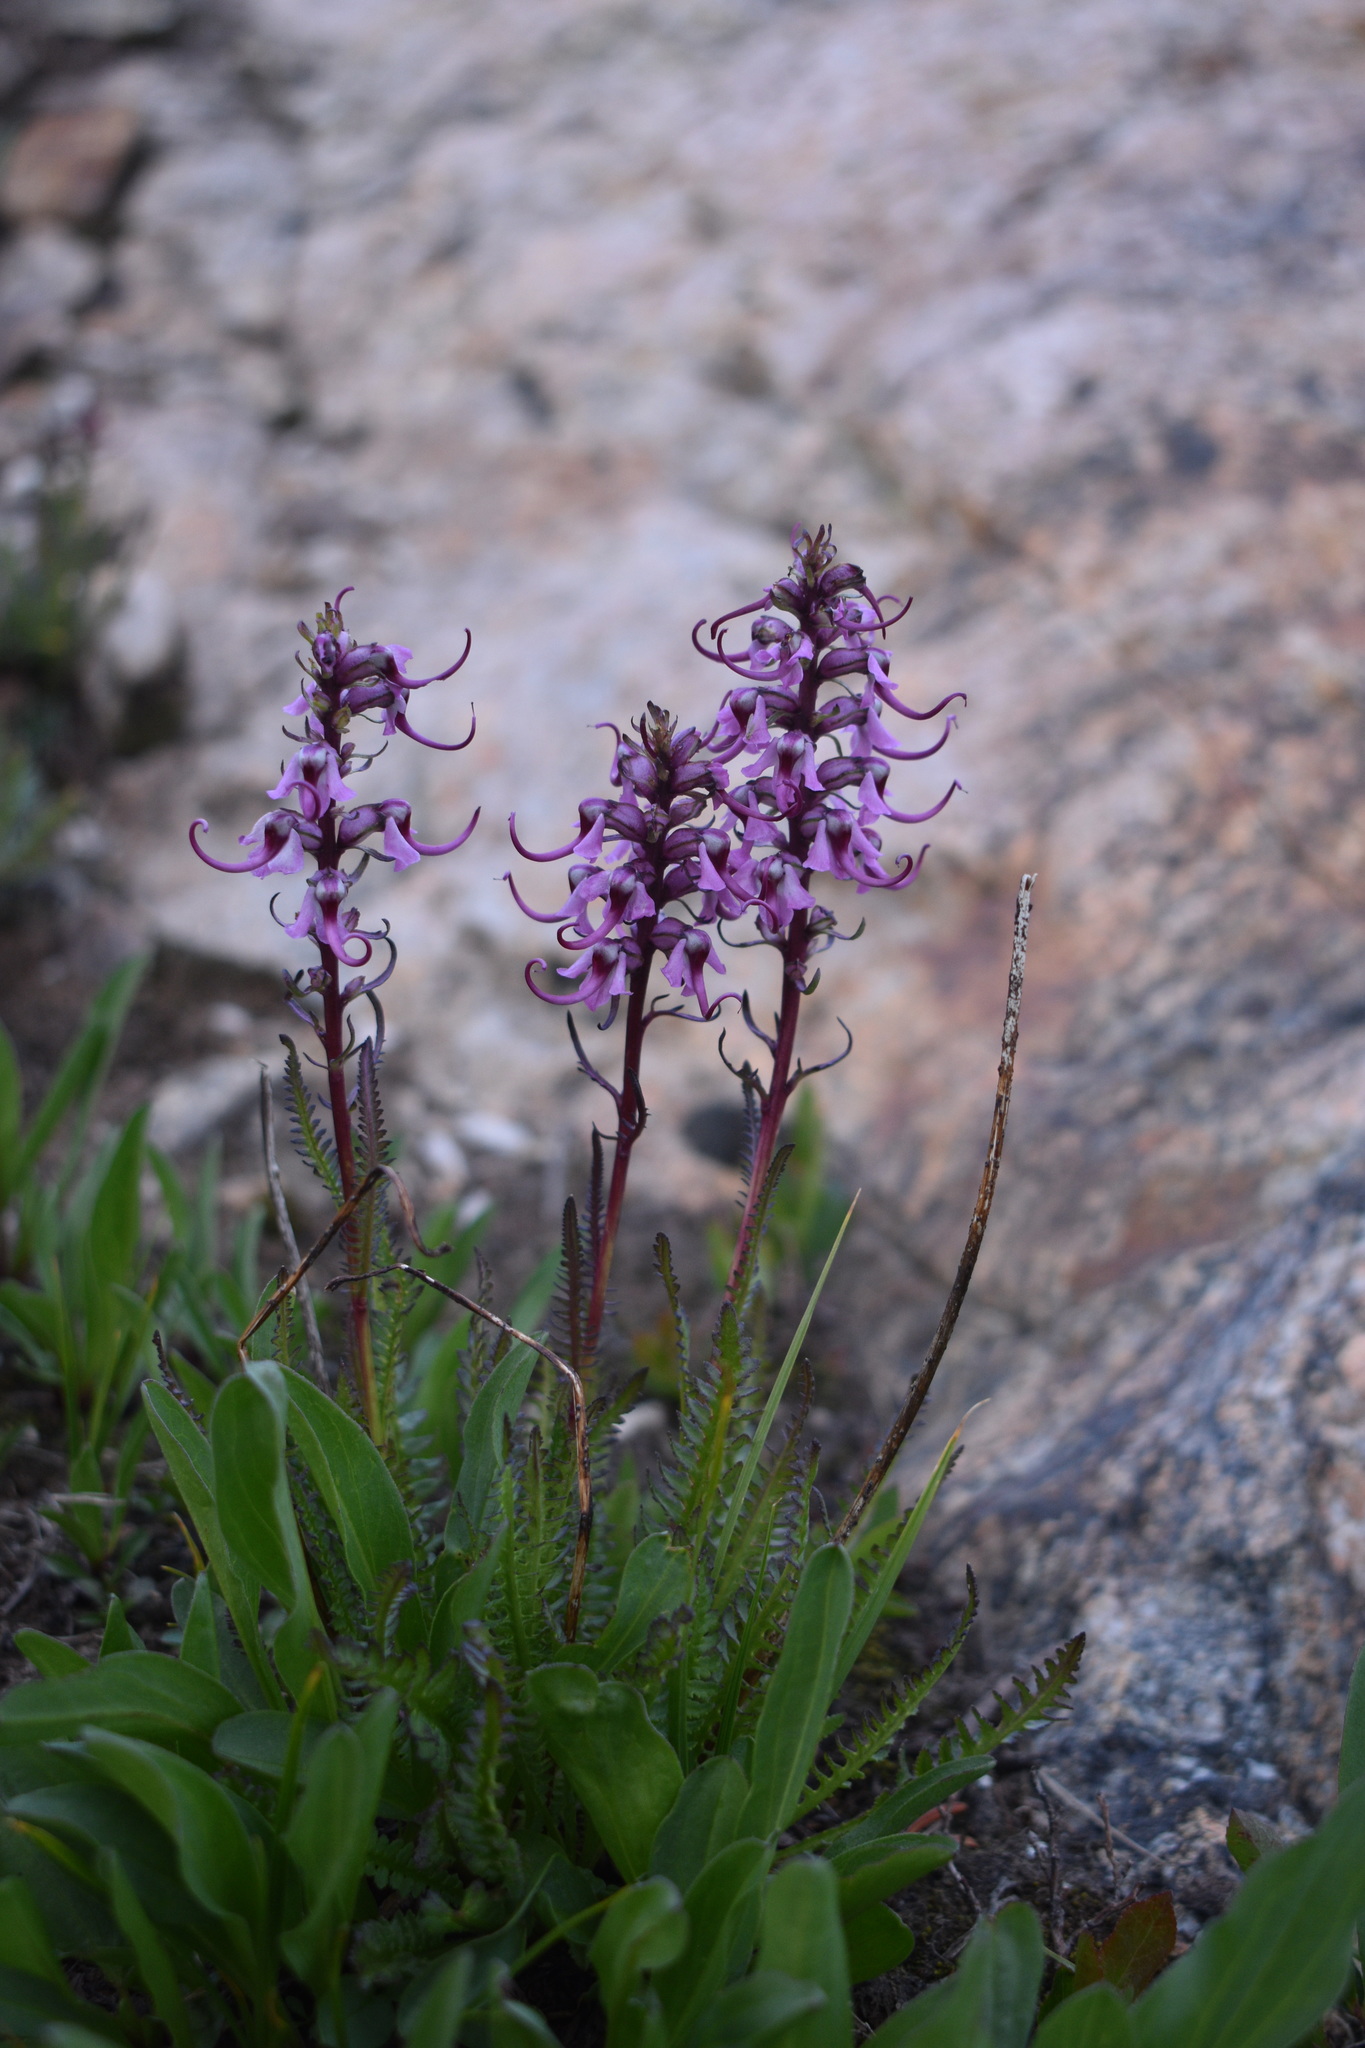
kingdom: Plantae
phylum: Tracheophyta
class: Magnoliopsida
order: Lamiales
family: Orobanchaceae
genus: Pedicularis
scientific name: Pedicularis groenlandica
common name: Elephant's-head
